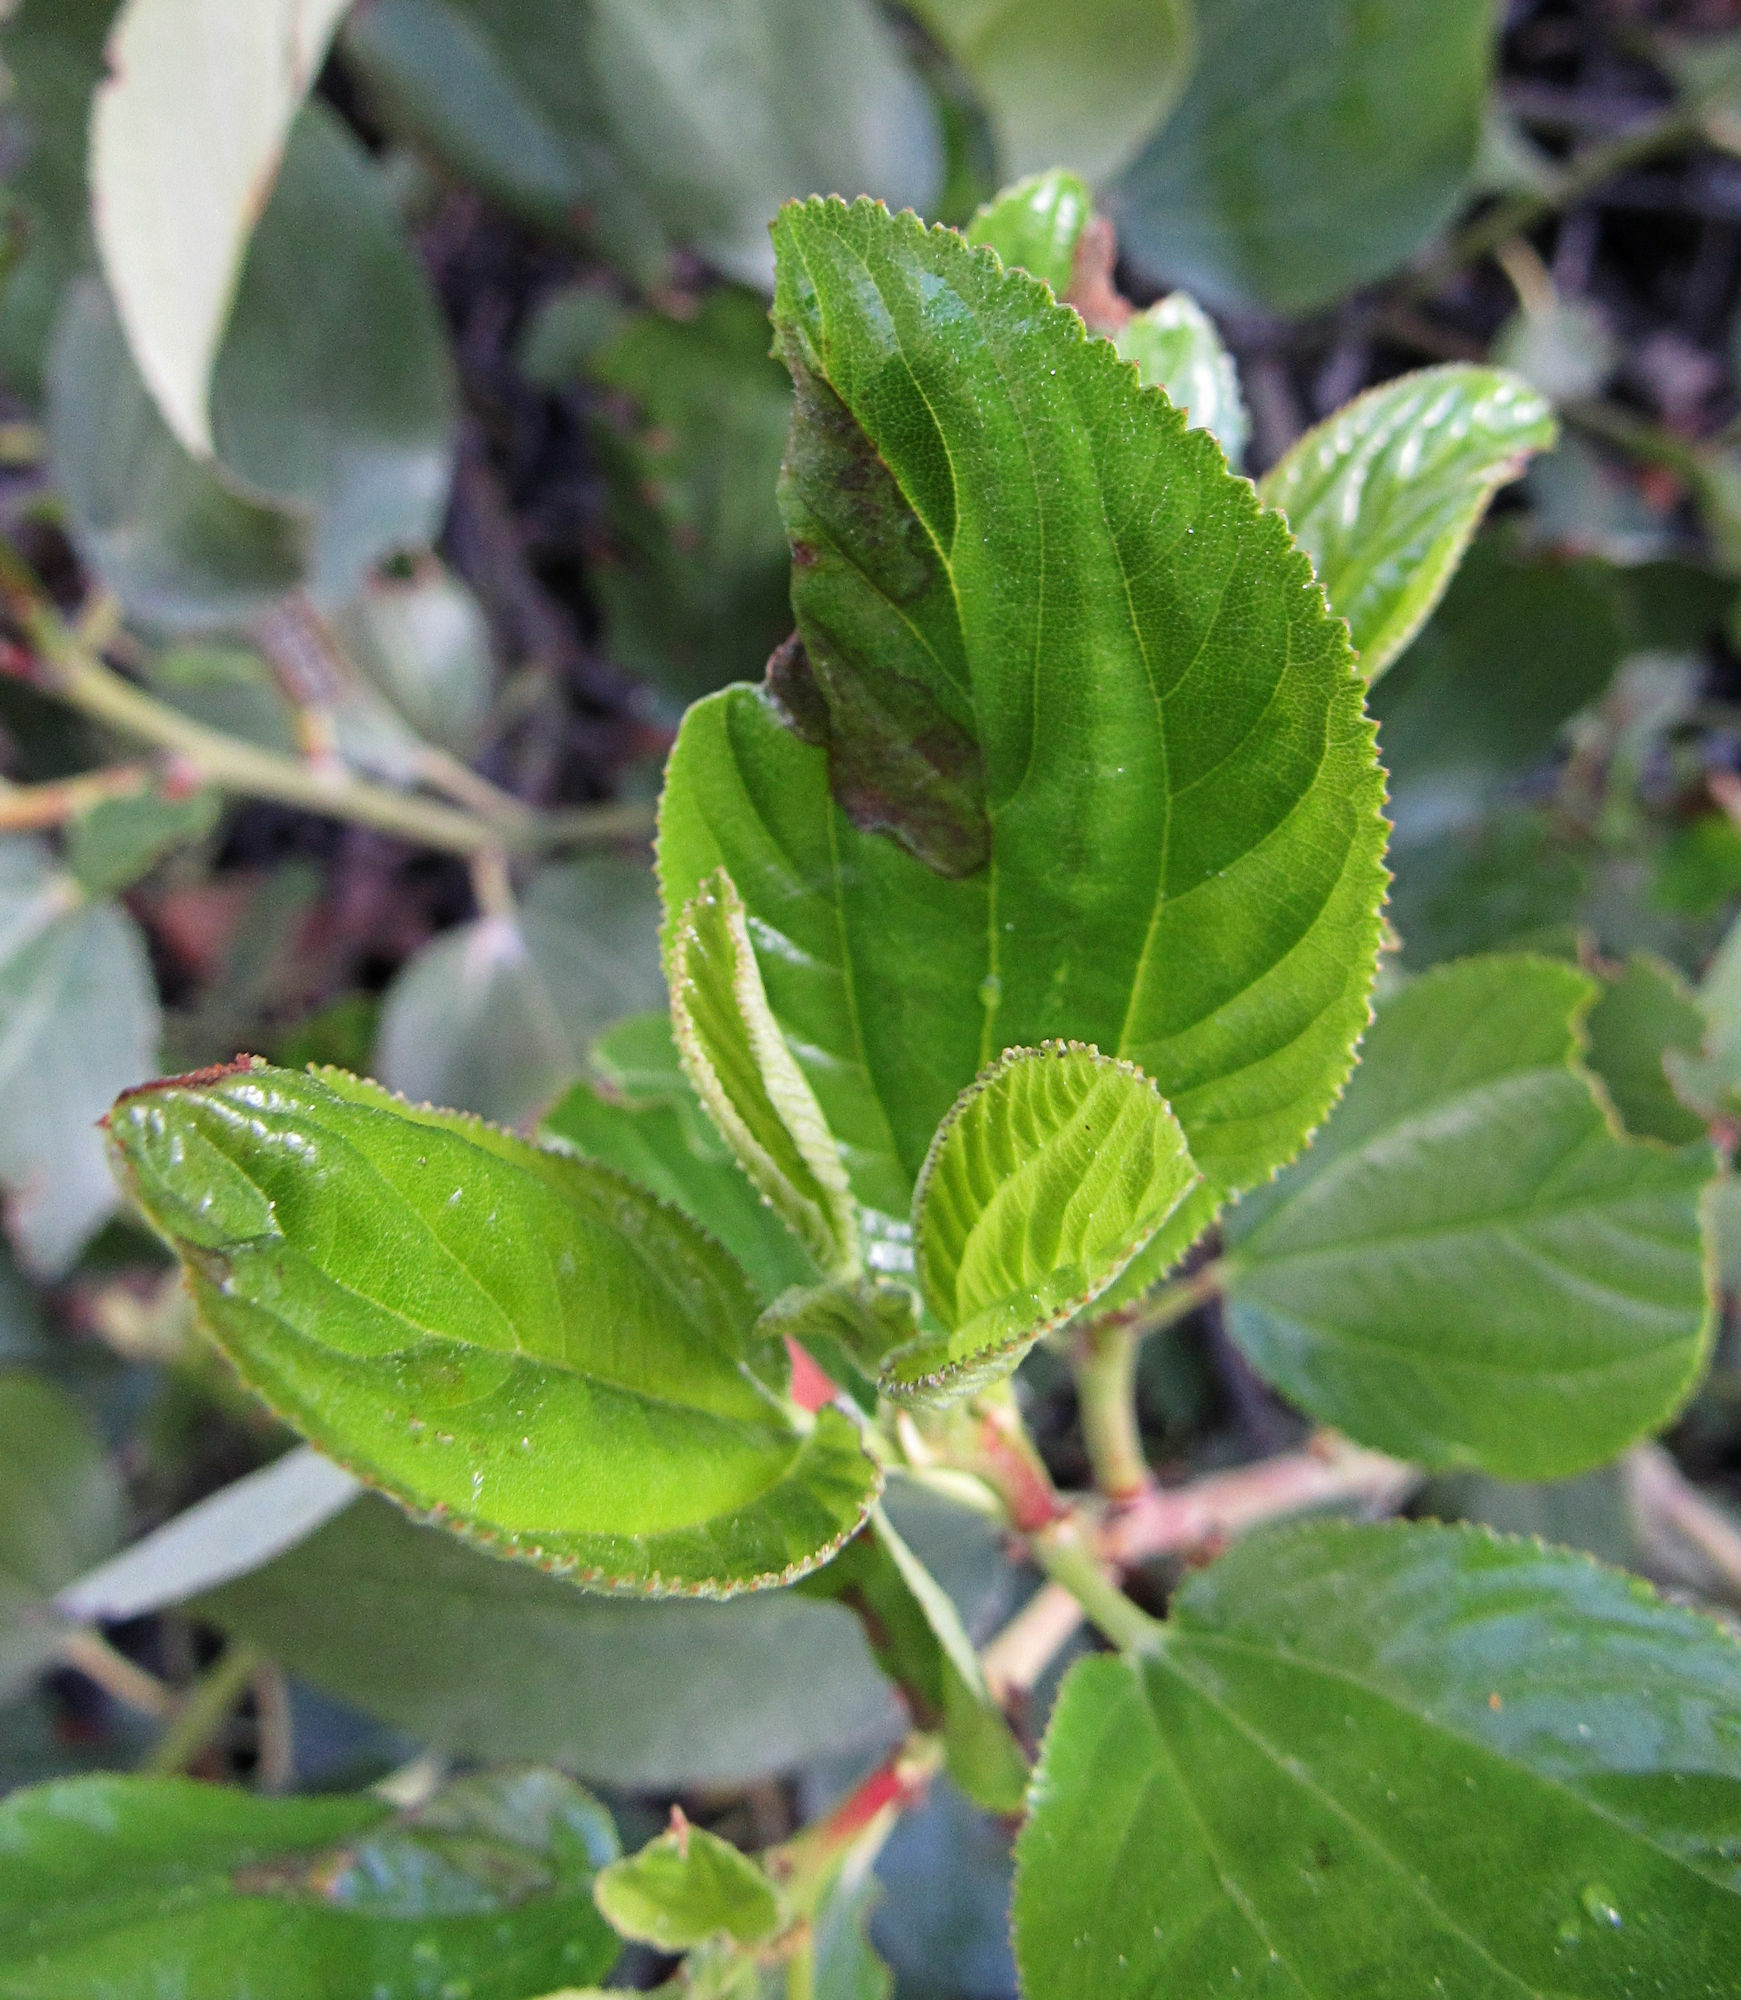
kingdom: Plantae
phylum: Tracheophyta
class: Magnoliopsida
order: Rosales
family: Rhamnaceae
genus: Ceanothus
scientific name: Ceanothus velutinus
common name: Snowbrush
